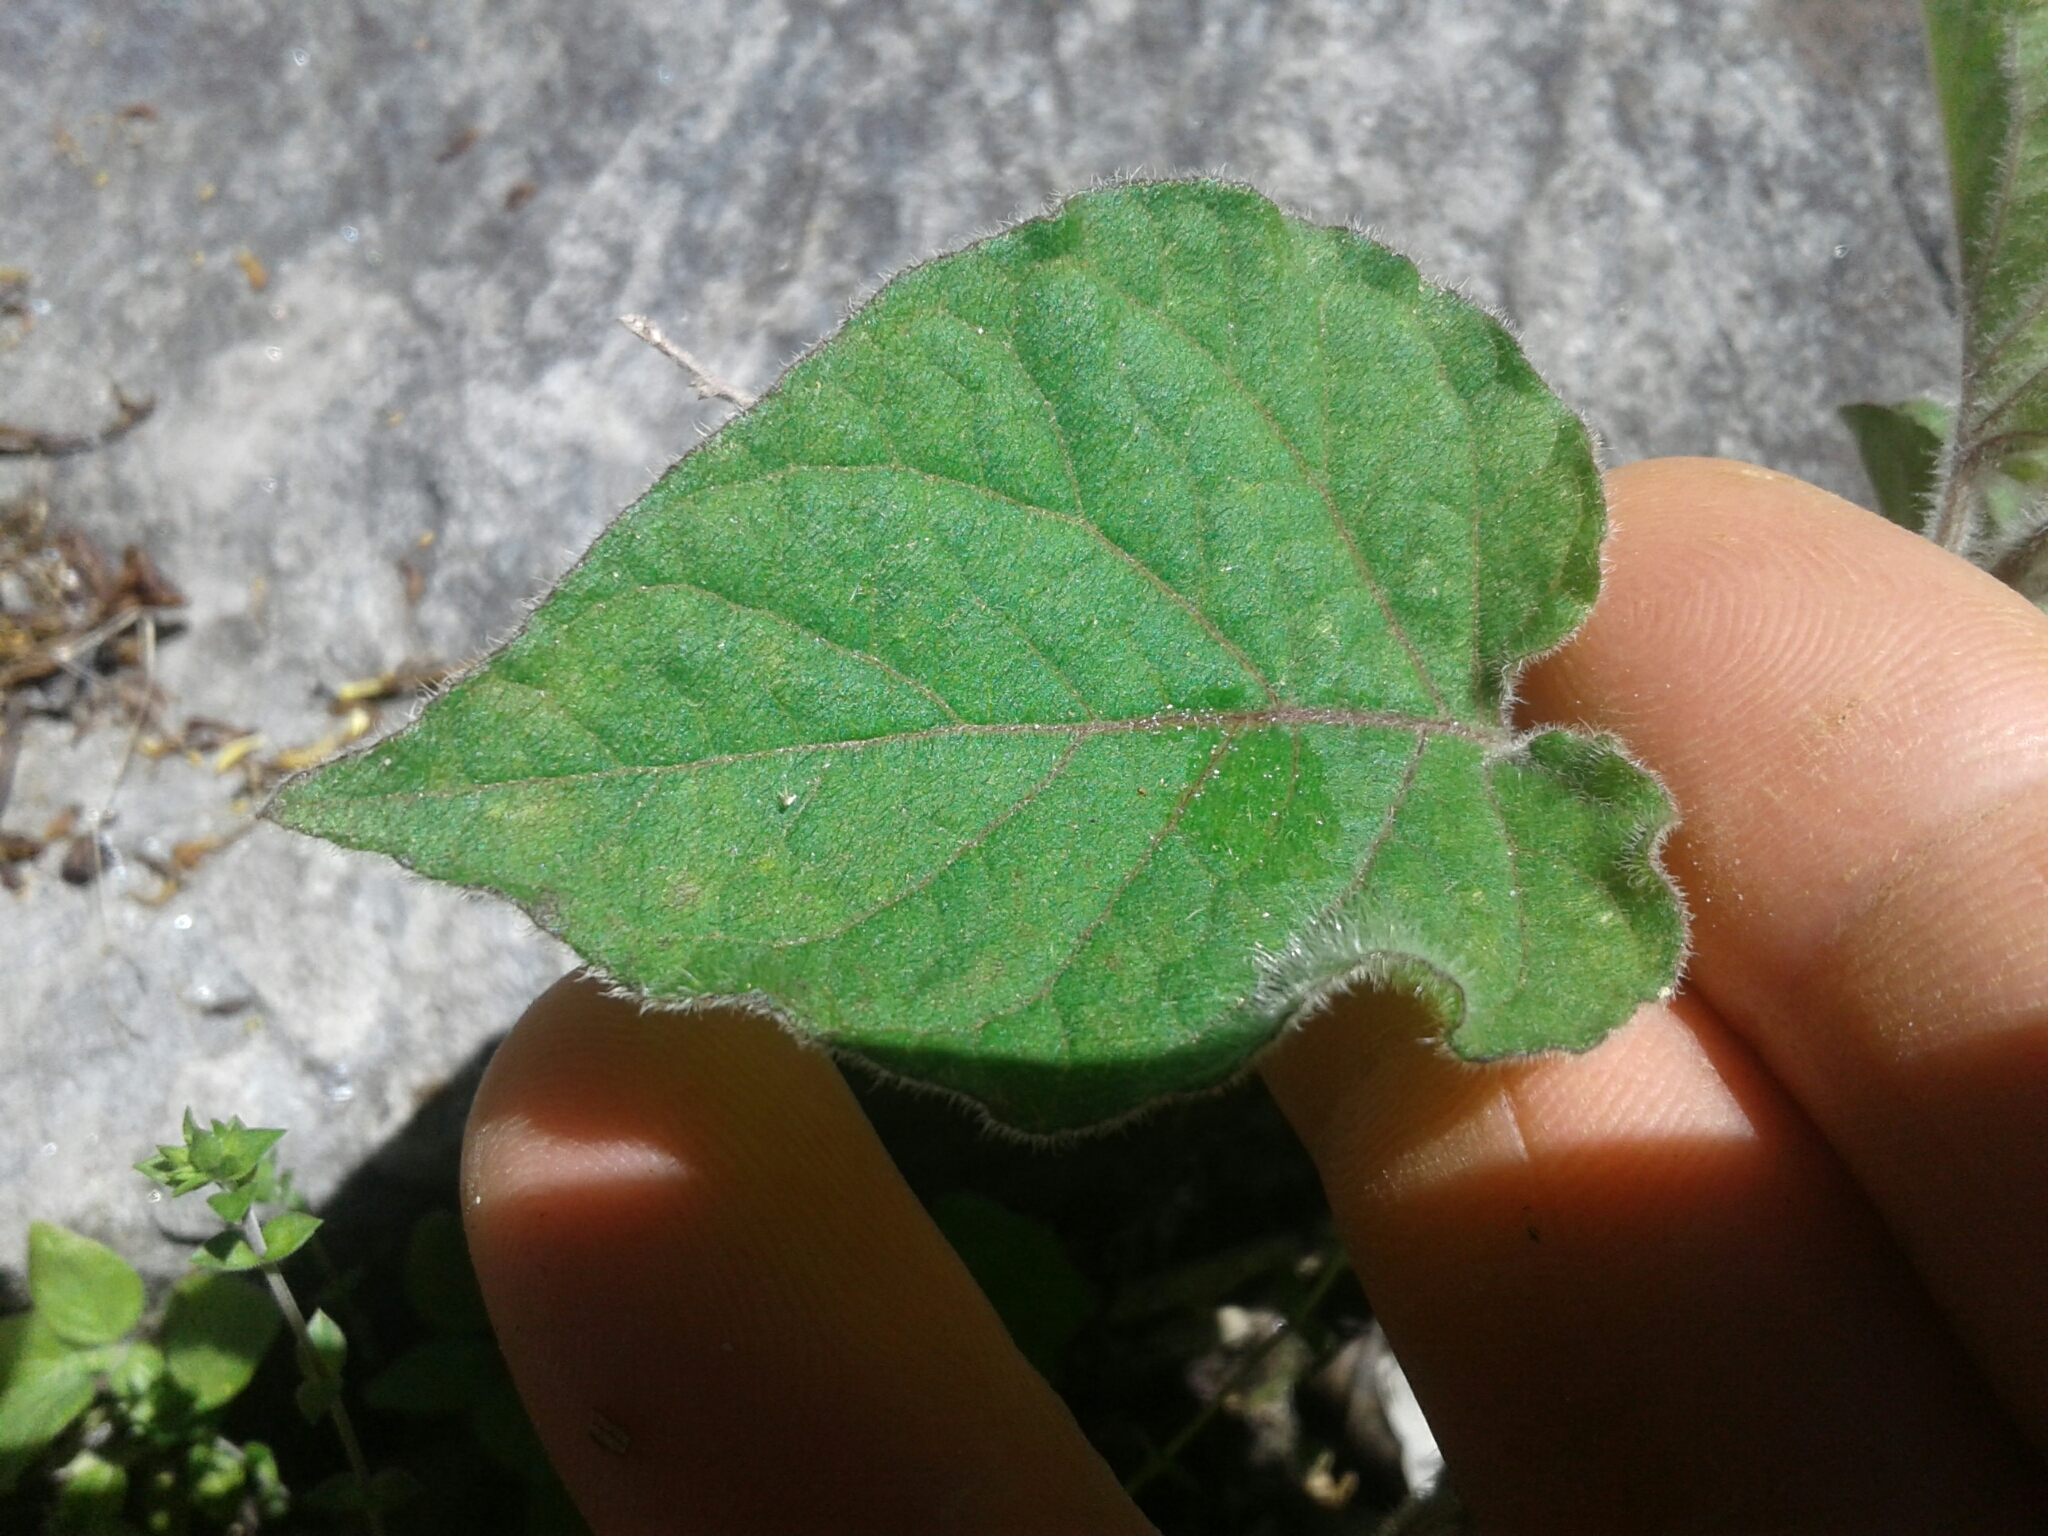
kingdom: Plantae
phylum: Tracheophyta
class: Magnoliopsida
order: Solanales
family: Solanaceae
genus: Physalis
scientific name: Physalis peruviana
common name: Cape-gooseberry
